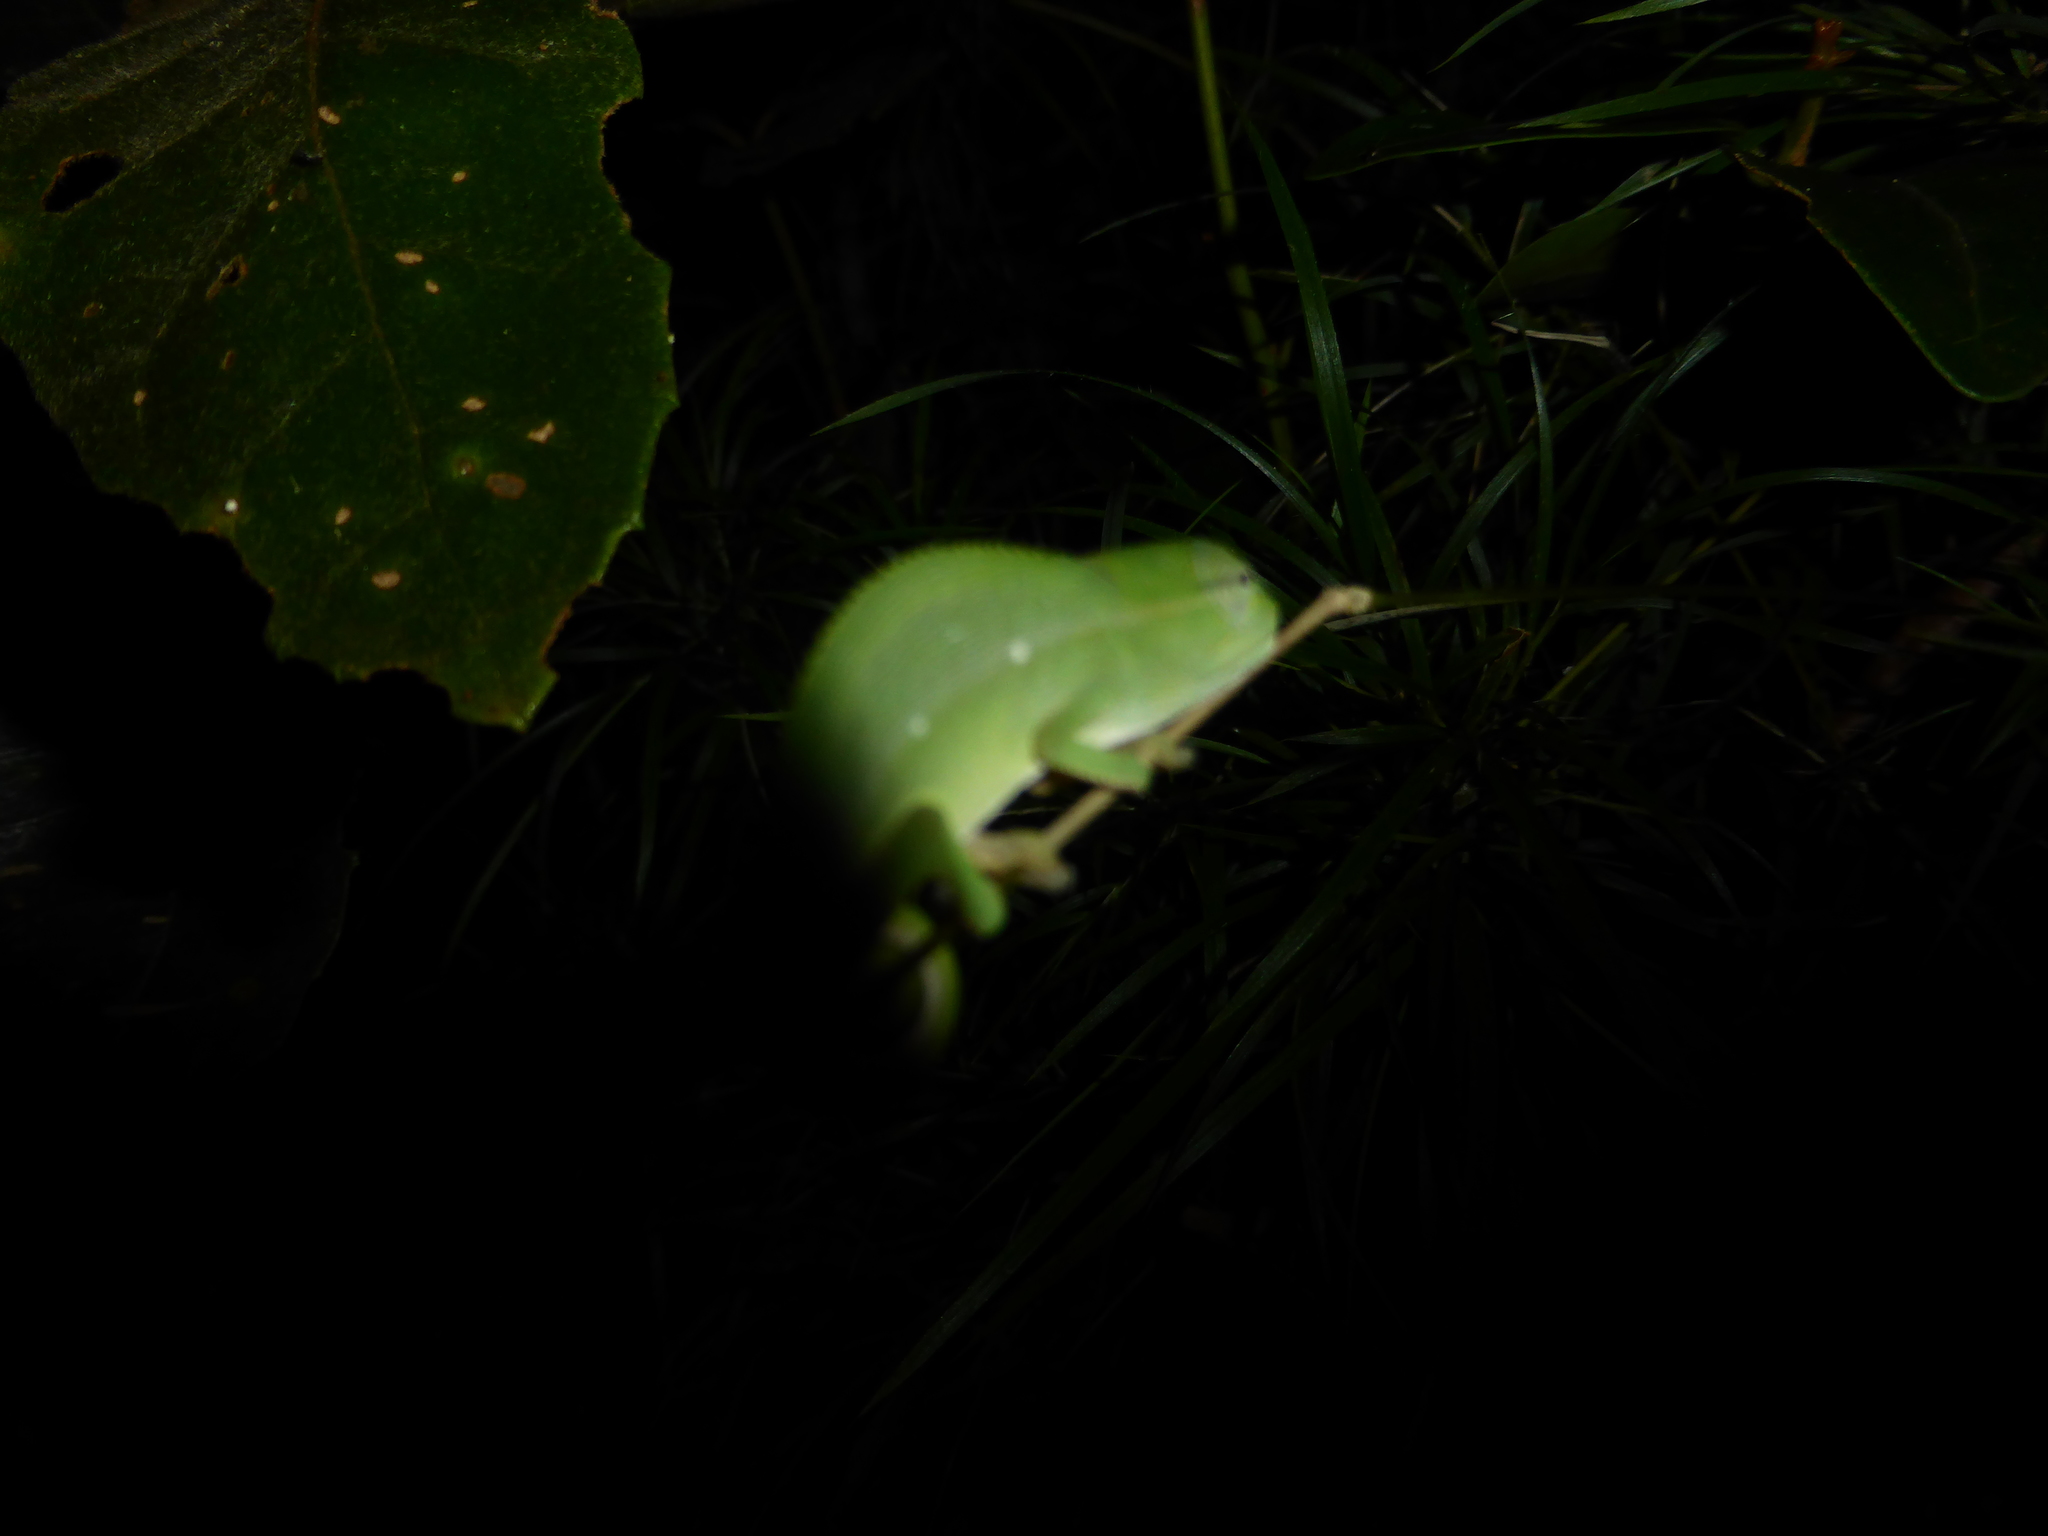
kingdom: Animalia
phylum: Chordata
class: Squamata
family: Chamaeleonidae
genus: Calumma
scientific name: Calumma gastrotaenia
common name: Short-nosed chameleon
